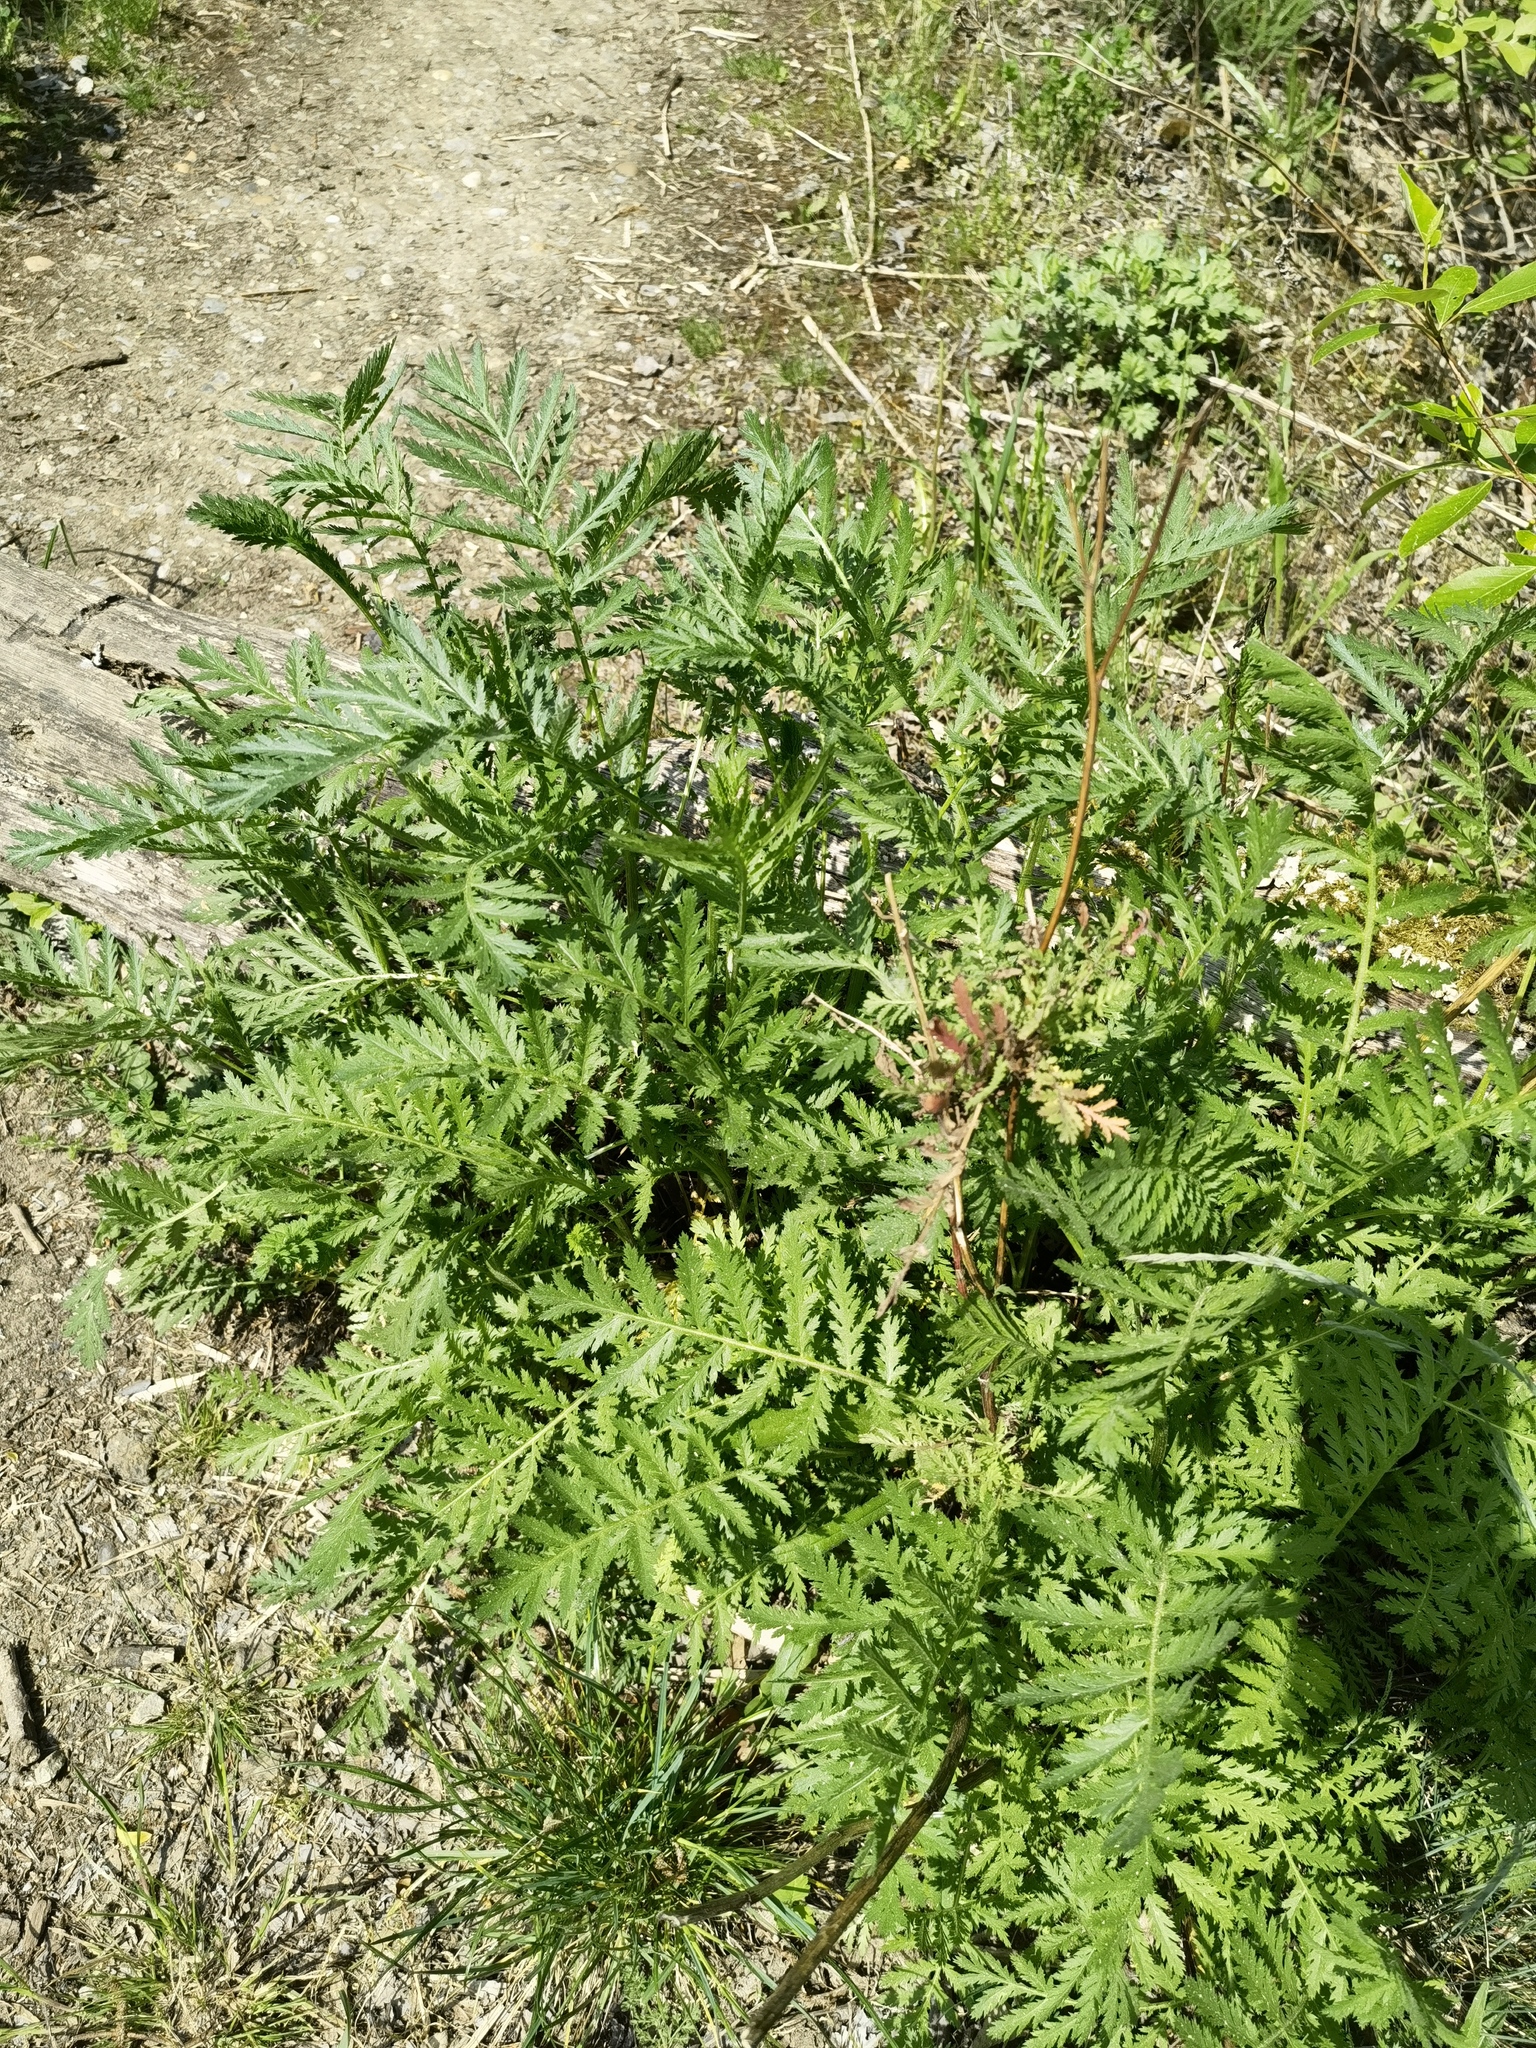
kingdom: Plantae
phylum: Tracheophyta
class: Magnoliopsida
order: Asterales
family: Asteraceae
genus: Tanacetum
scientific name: Tanacetum vulgare
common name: Common tansy
